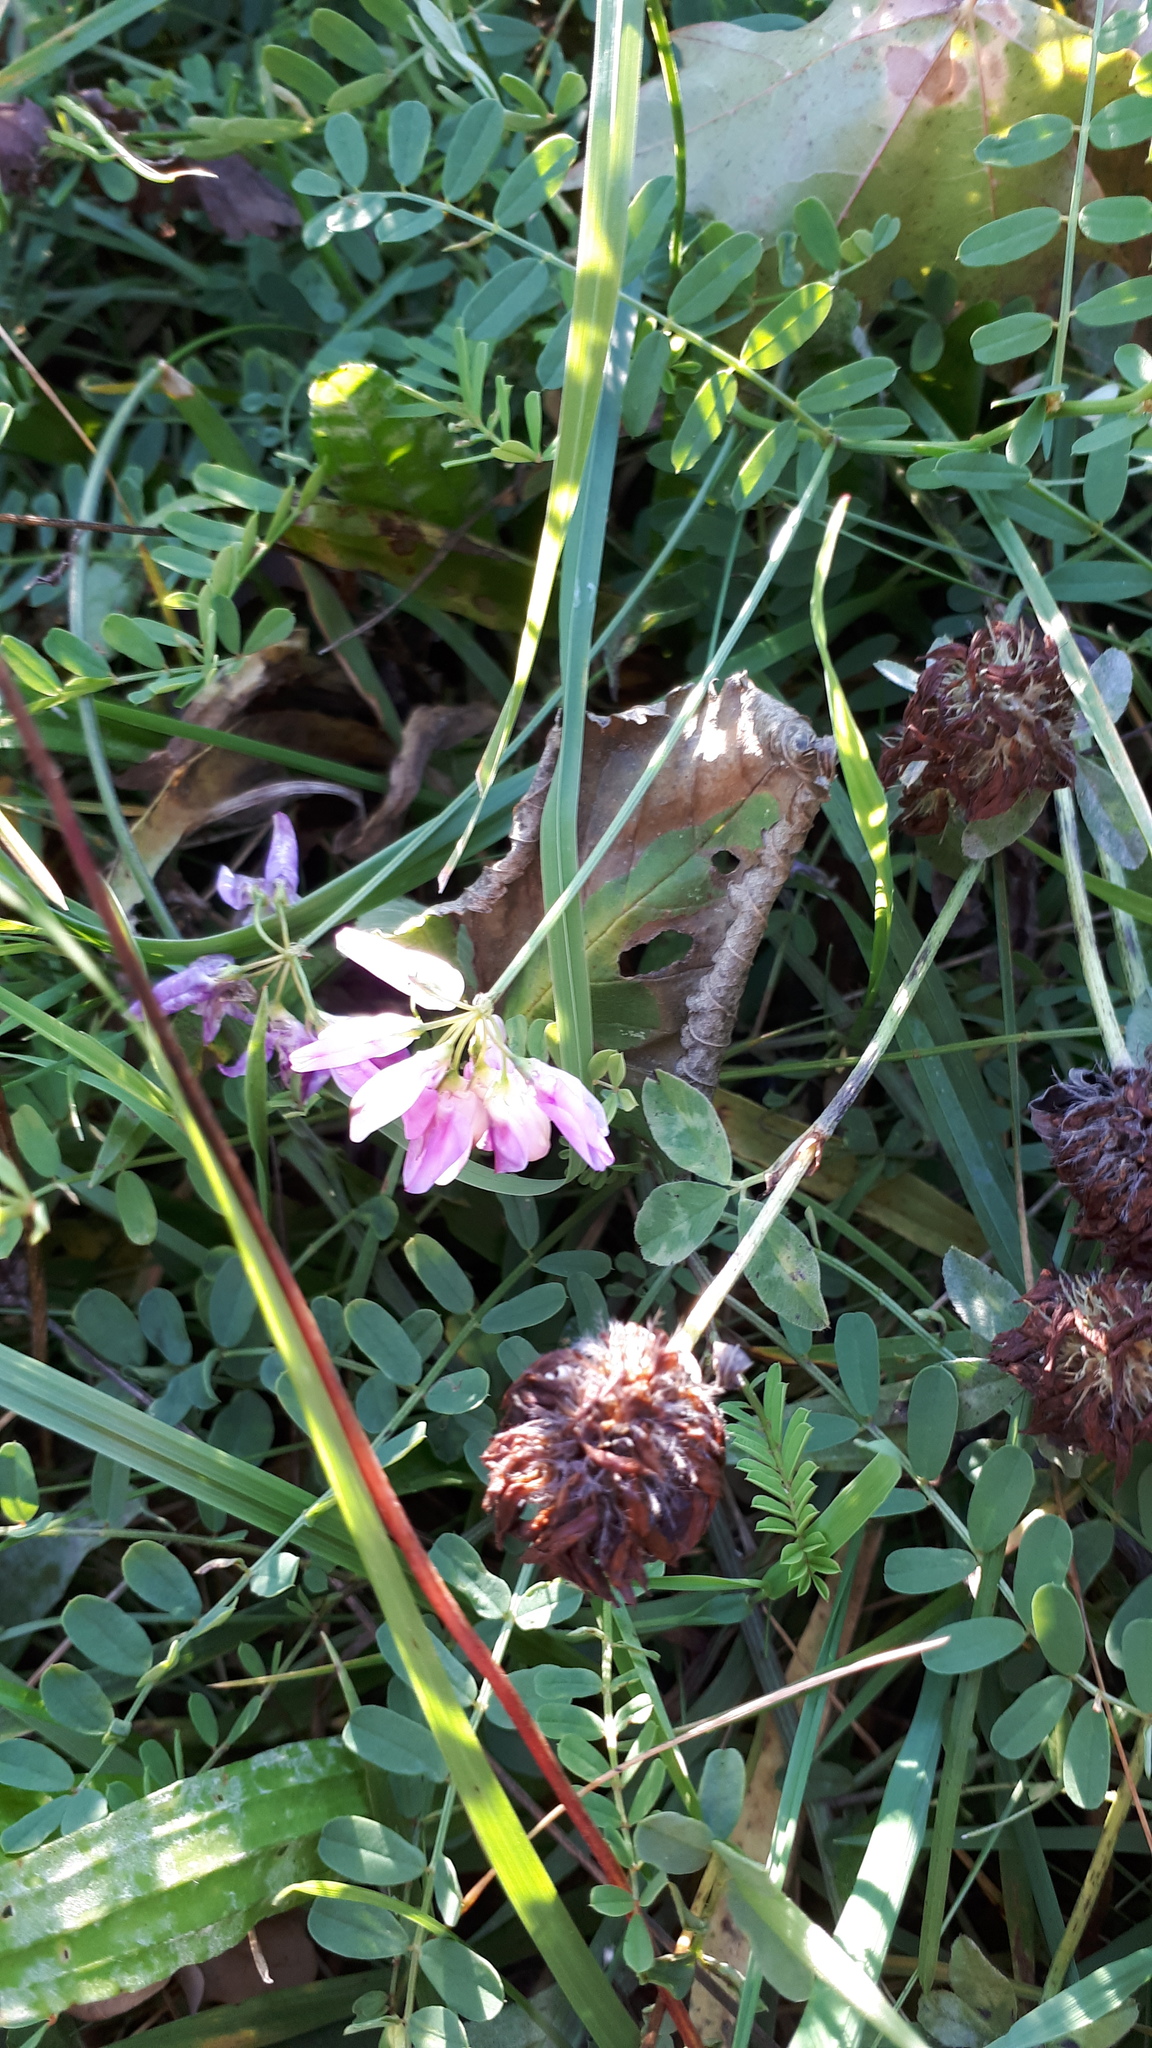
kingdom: Plantae
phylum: Tracheophyta
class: Magnoliopsida
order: Fabales
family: Fabaceae
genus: Coronilla
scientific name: Coronilla varia
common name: Crownvetch
